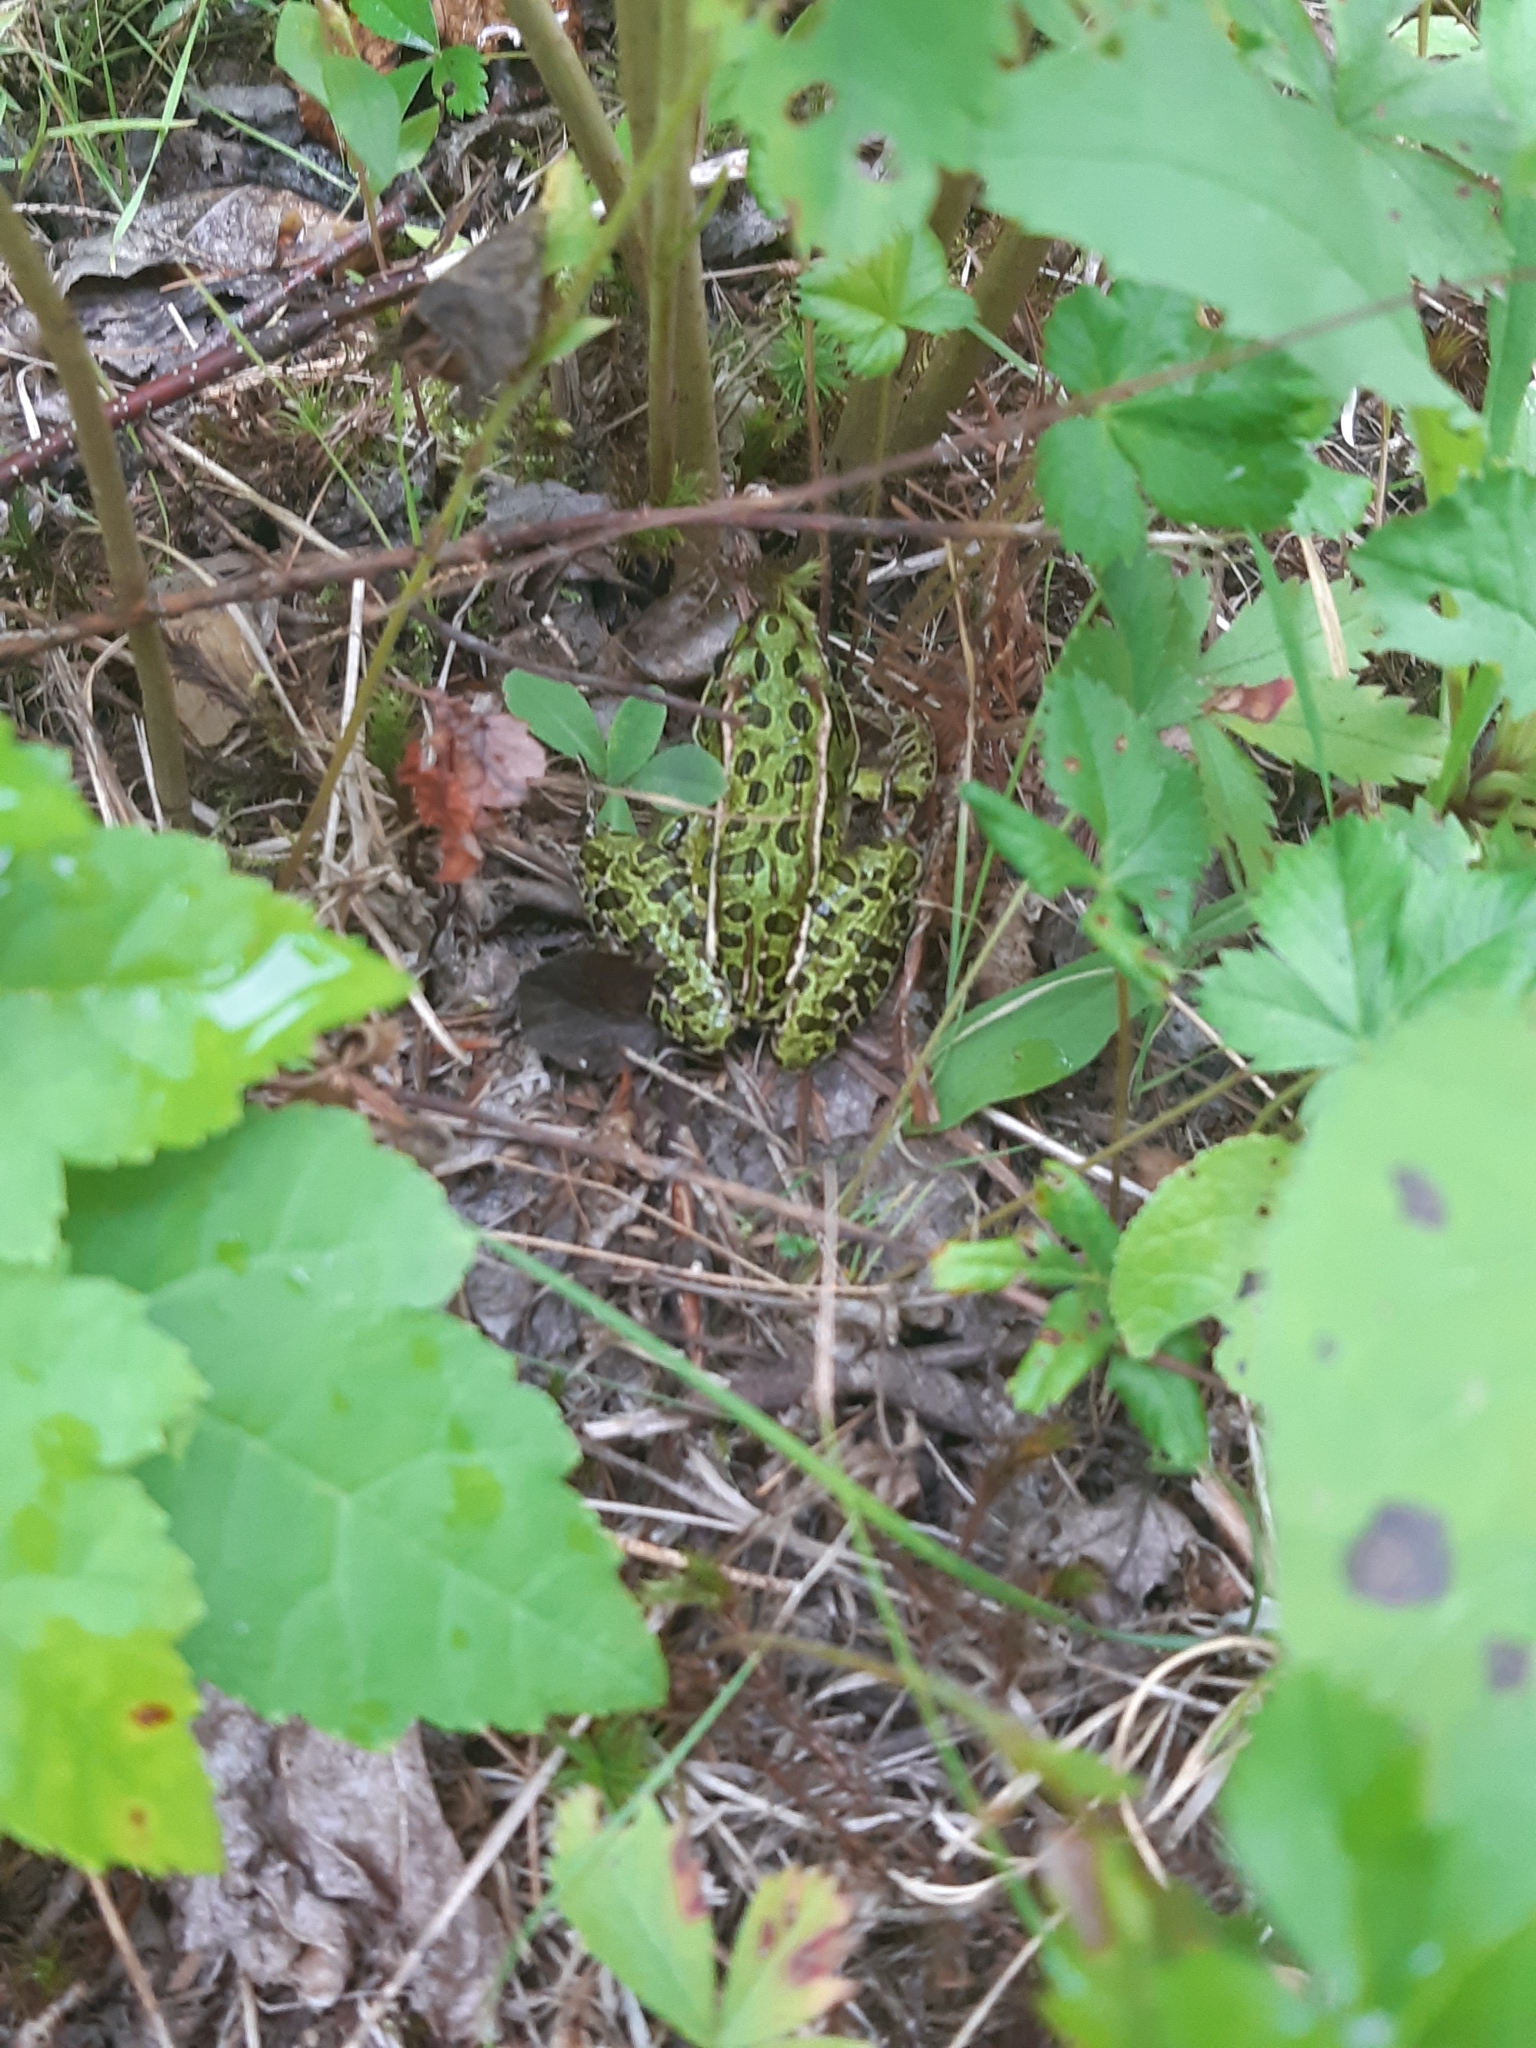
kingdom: Animalia
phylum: Chordata
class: Amphibia
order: Anura
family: Ranidae
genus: Lithobates
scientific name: Lithobates pipiens
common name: Northern leopard frog
